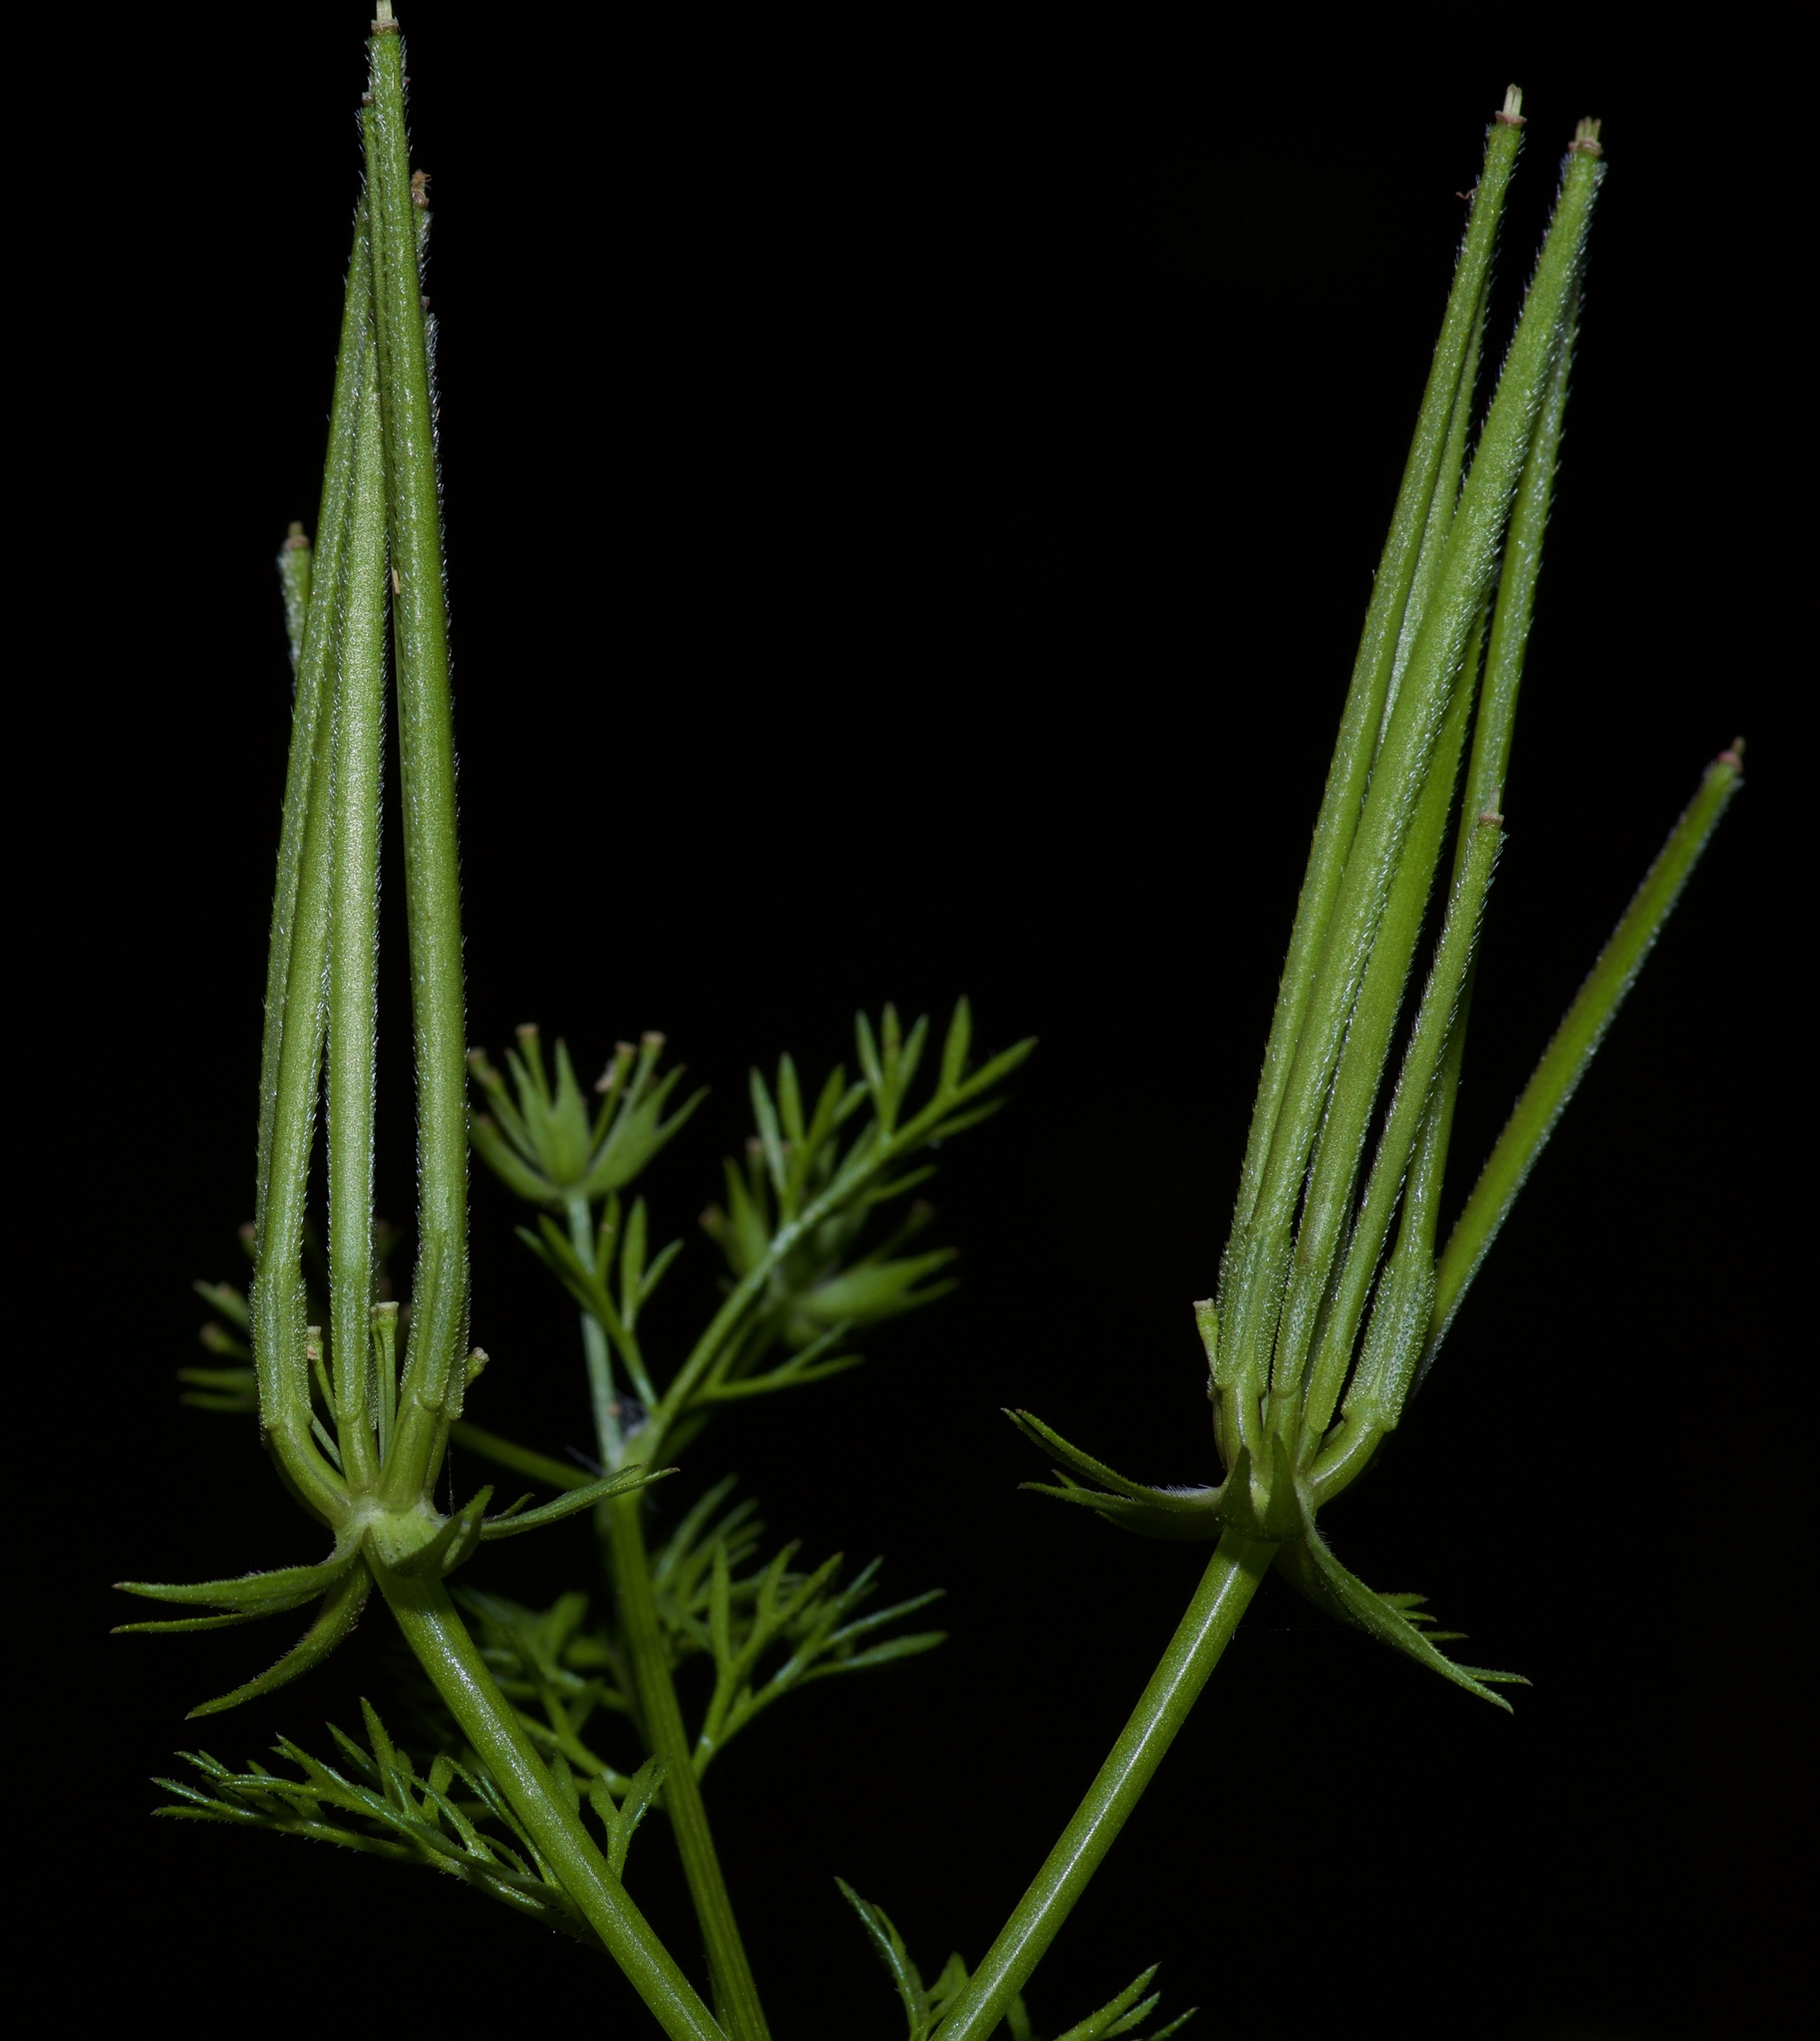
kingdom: Plantae
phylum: Tracheophyta
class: Magnoliopsida
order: Apiales
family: Apiaceae
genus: Scandix
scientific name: Scandix pecten-veneris
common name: Shepherd's-needle
